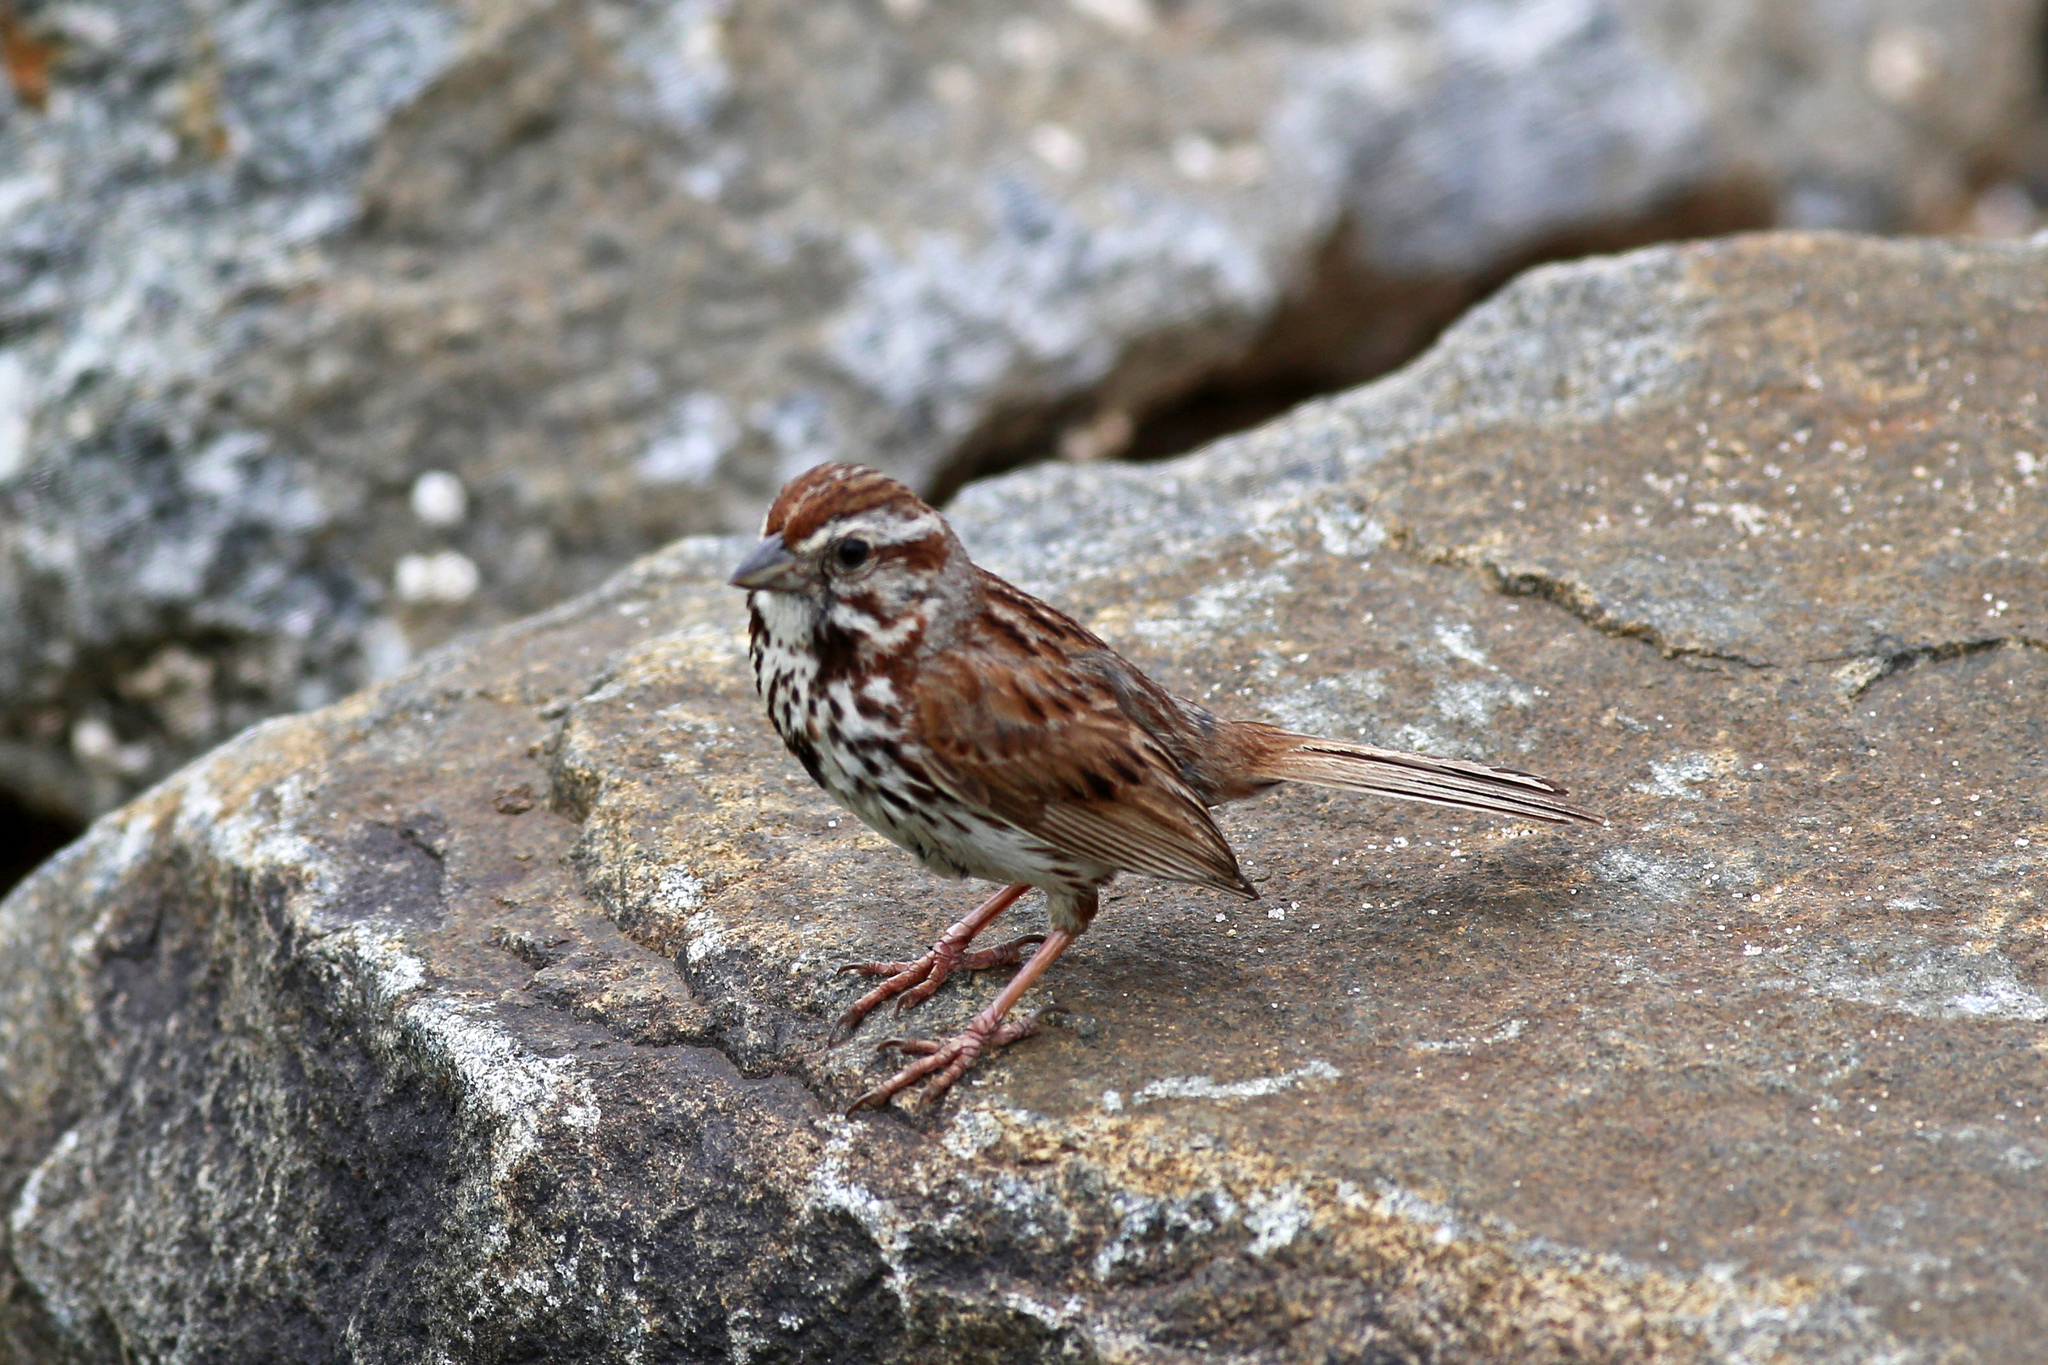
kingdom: Animalia
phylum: Chordata
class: Aves
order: Passeriformes
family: Passerellidae
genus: Melospiza
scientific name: Melospiza melodia
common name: Song sparrow
